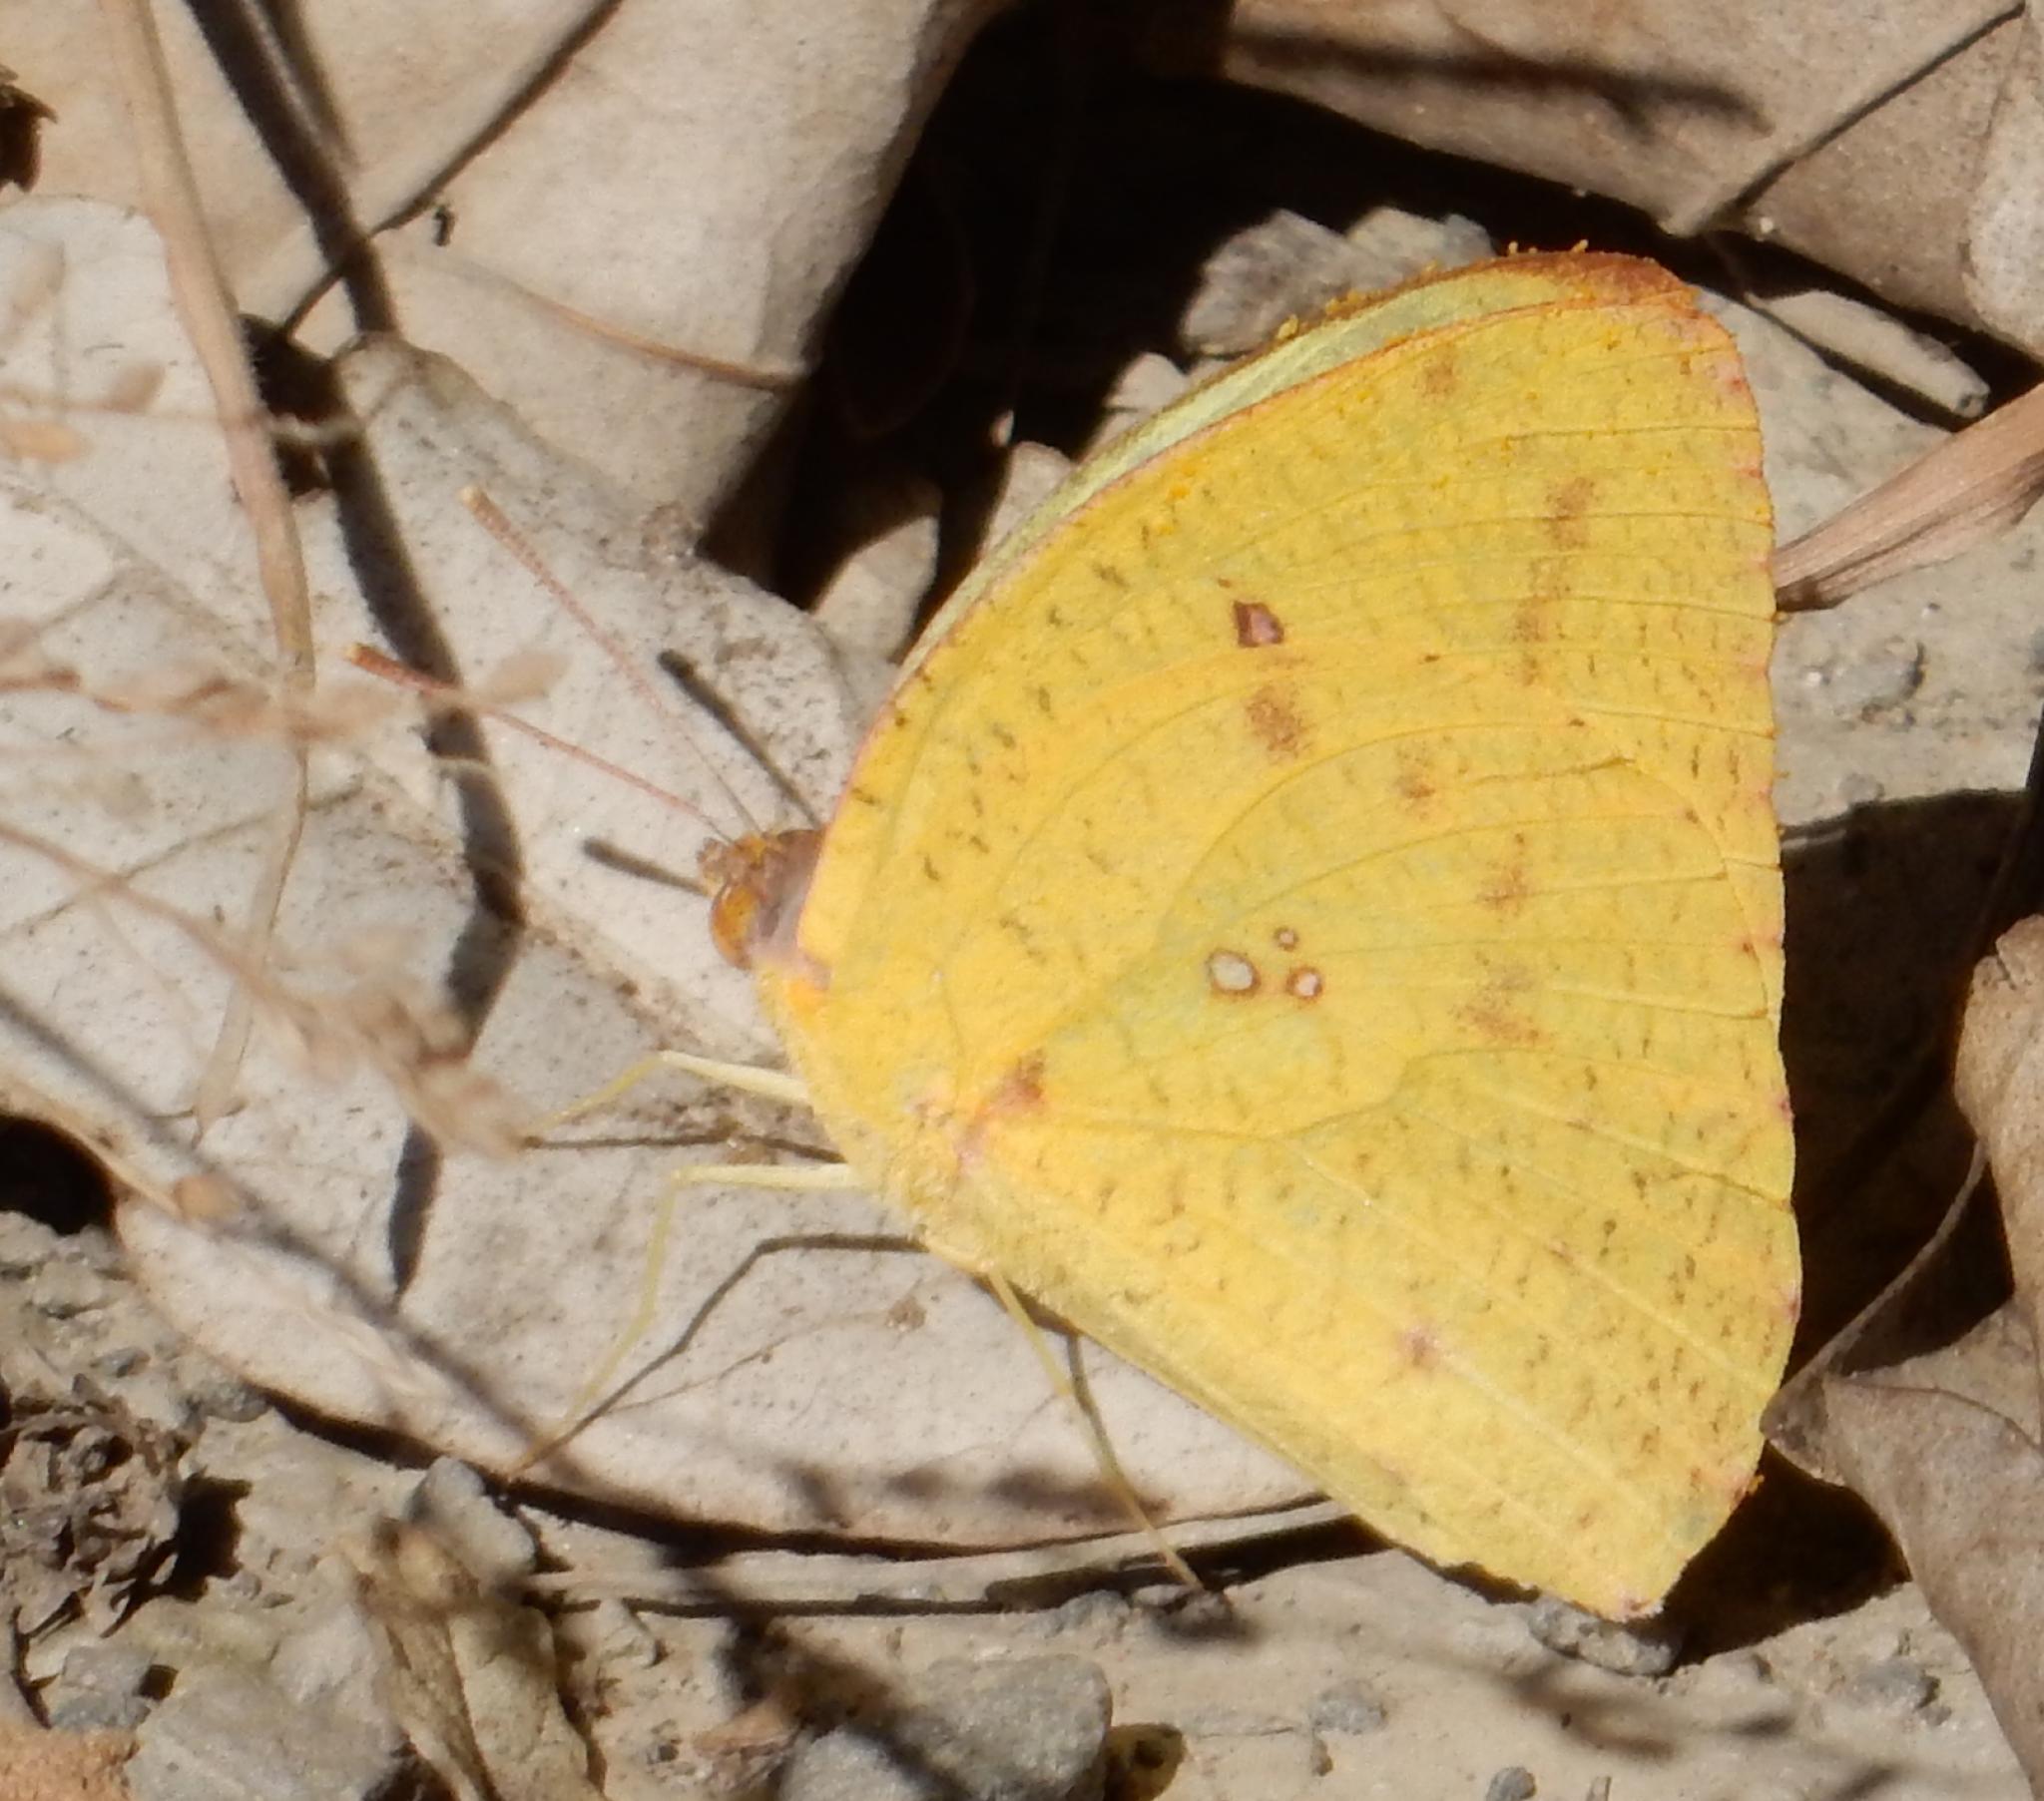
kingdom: Animalia
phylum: Arthropoda
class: Insecta
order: Lepidoptera
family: Pieridae
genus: Catopsilia
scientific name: Catopsilia florella
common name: African migrant
